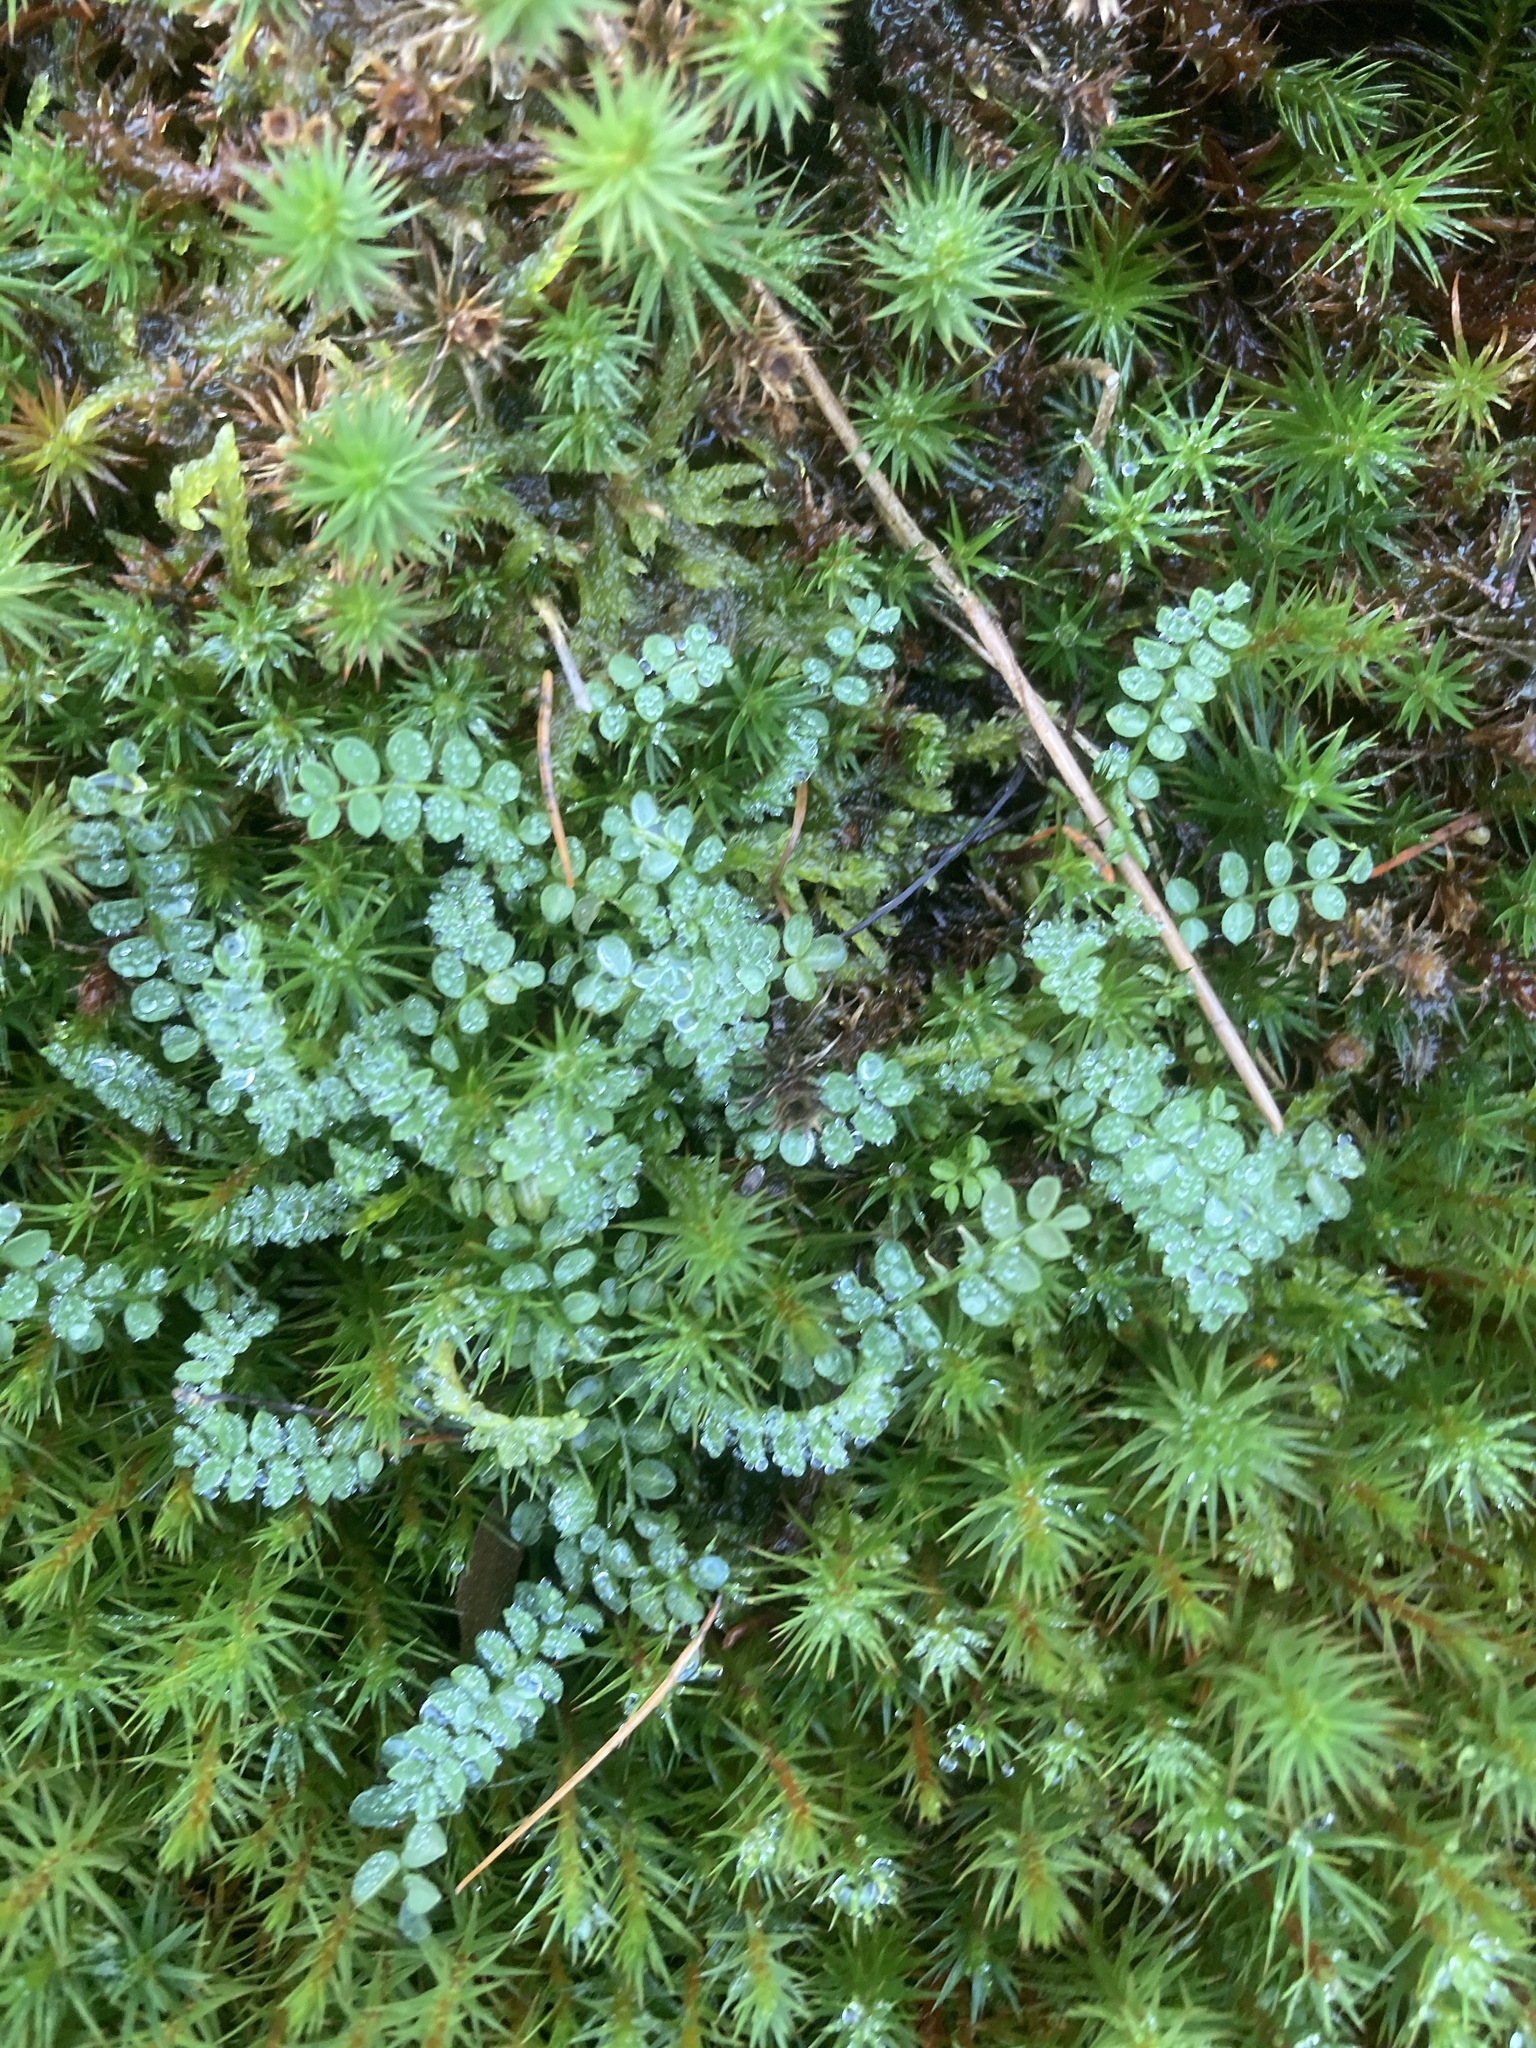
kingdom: Plantae
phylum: Tracheophyta
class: Magnoliopsida
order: Fabales
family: Fabaceae
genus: Ornithopus
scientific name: Ornithopus perpusillus
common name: Bird's-foot
